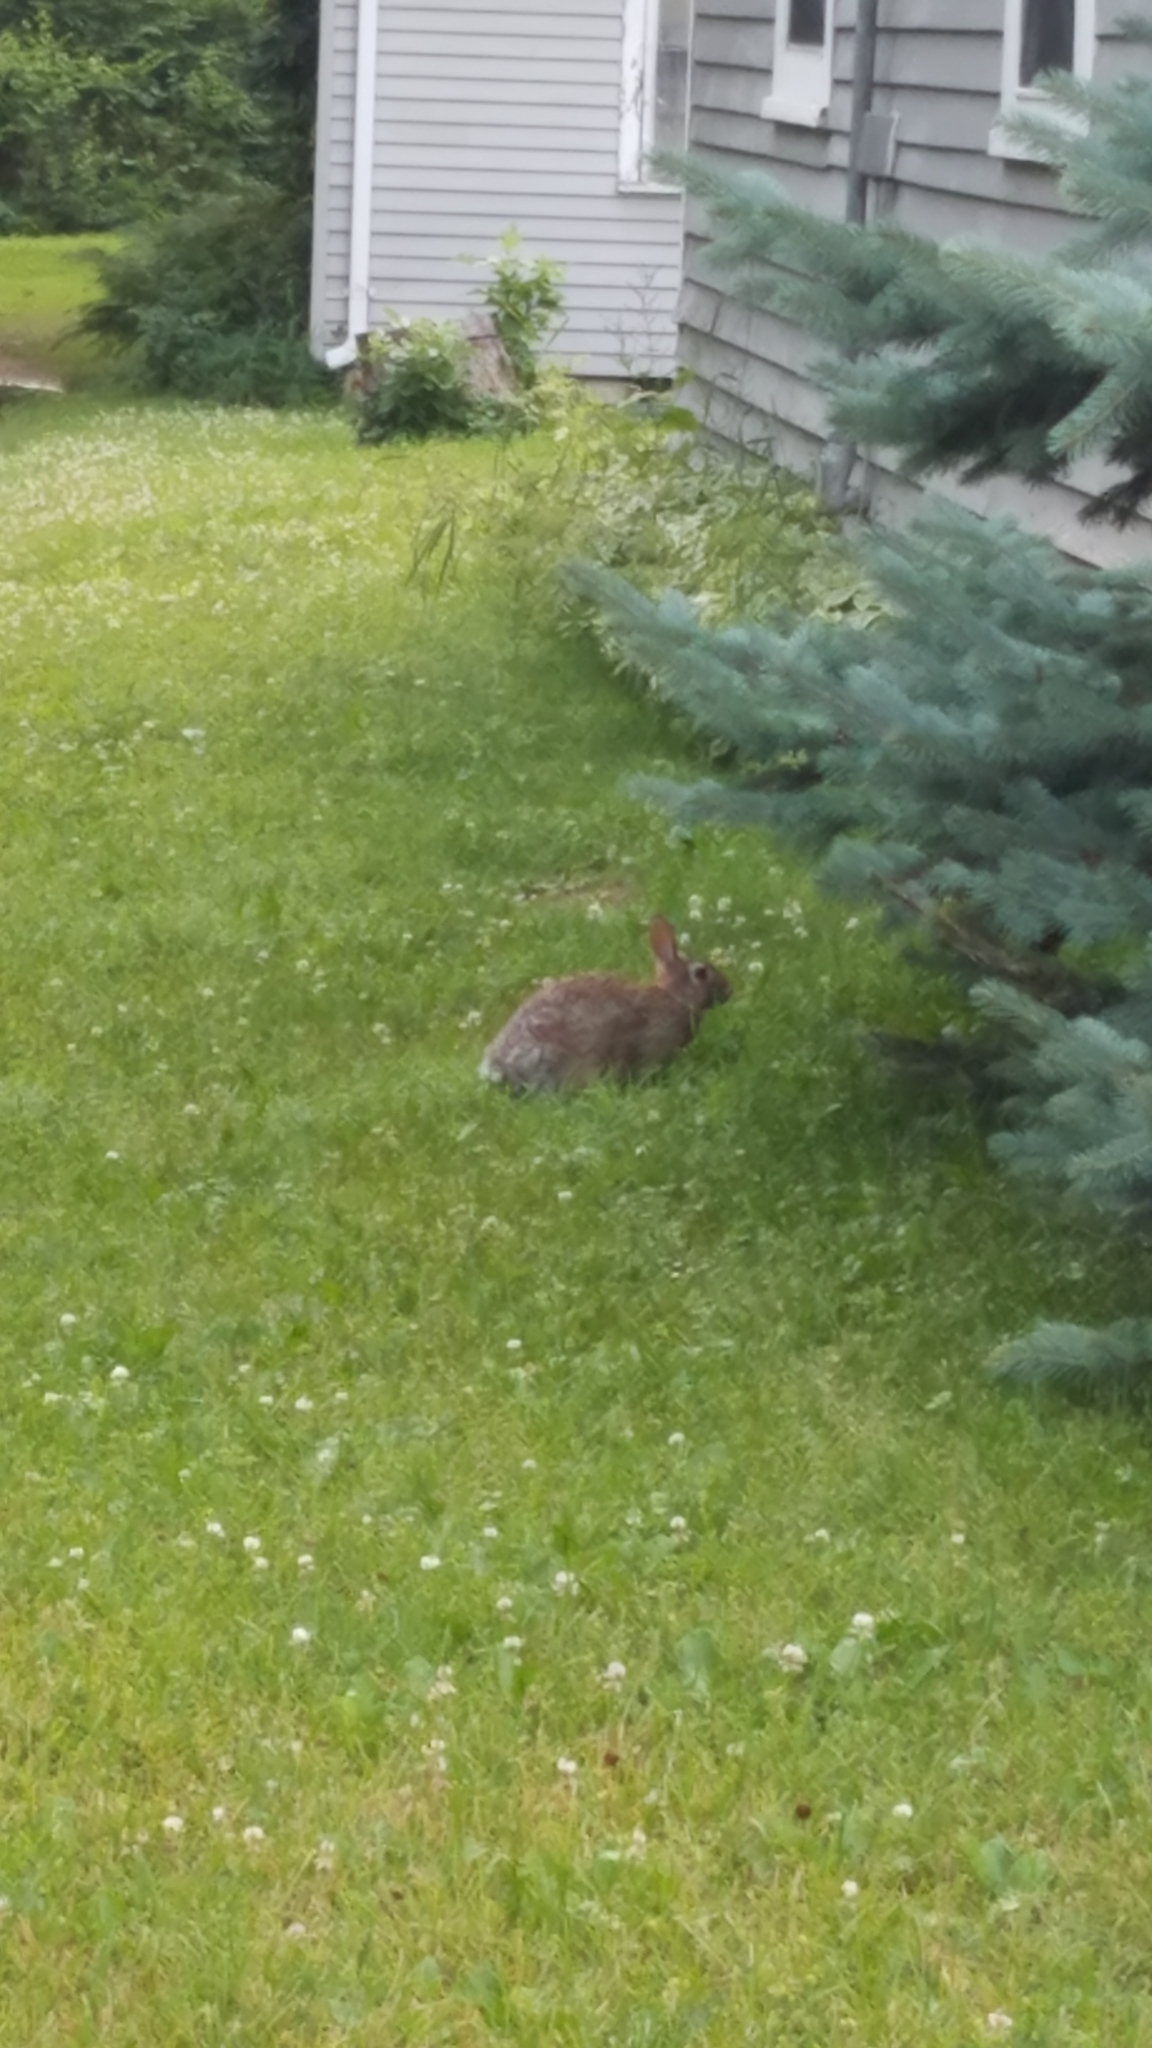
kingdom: Animalia
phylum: Chordata
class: Mammalia
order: Lagomorpha
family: Leporidae
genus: Sylvilagus
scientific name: Sylvilagus floridanus
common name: Eastern cottontail
